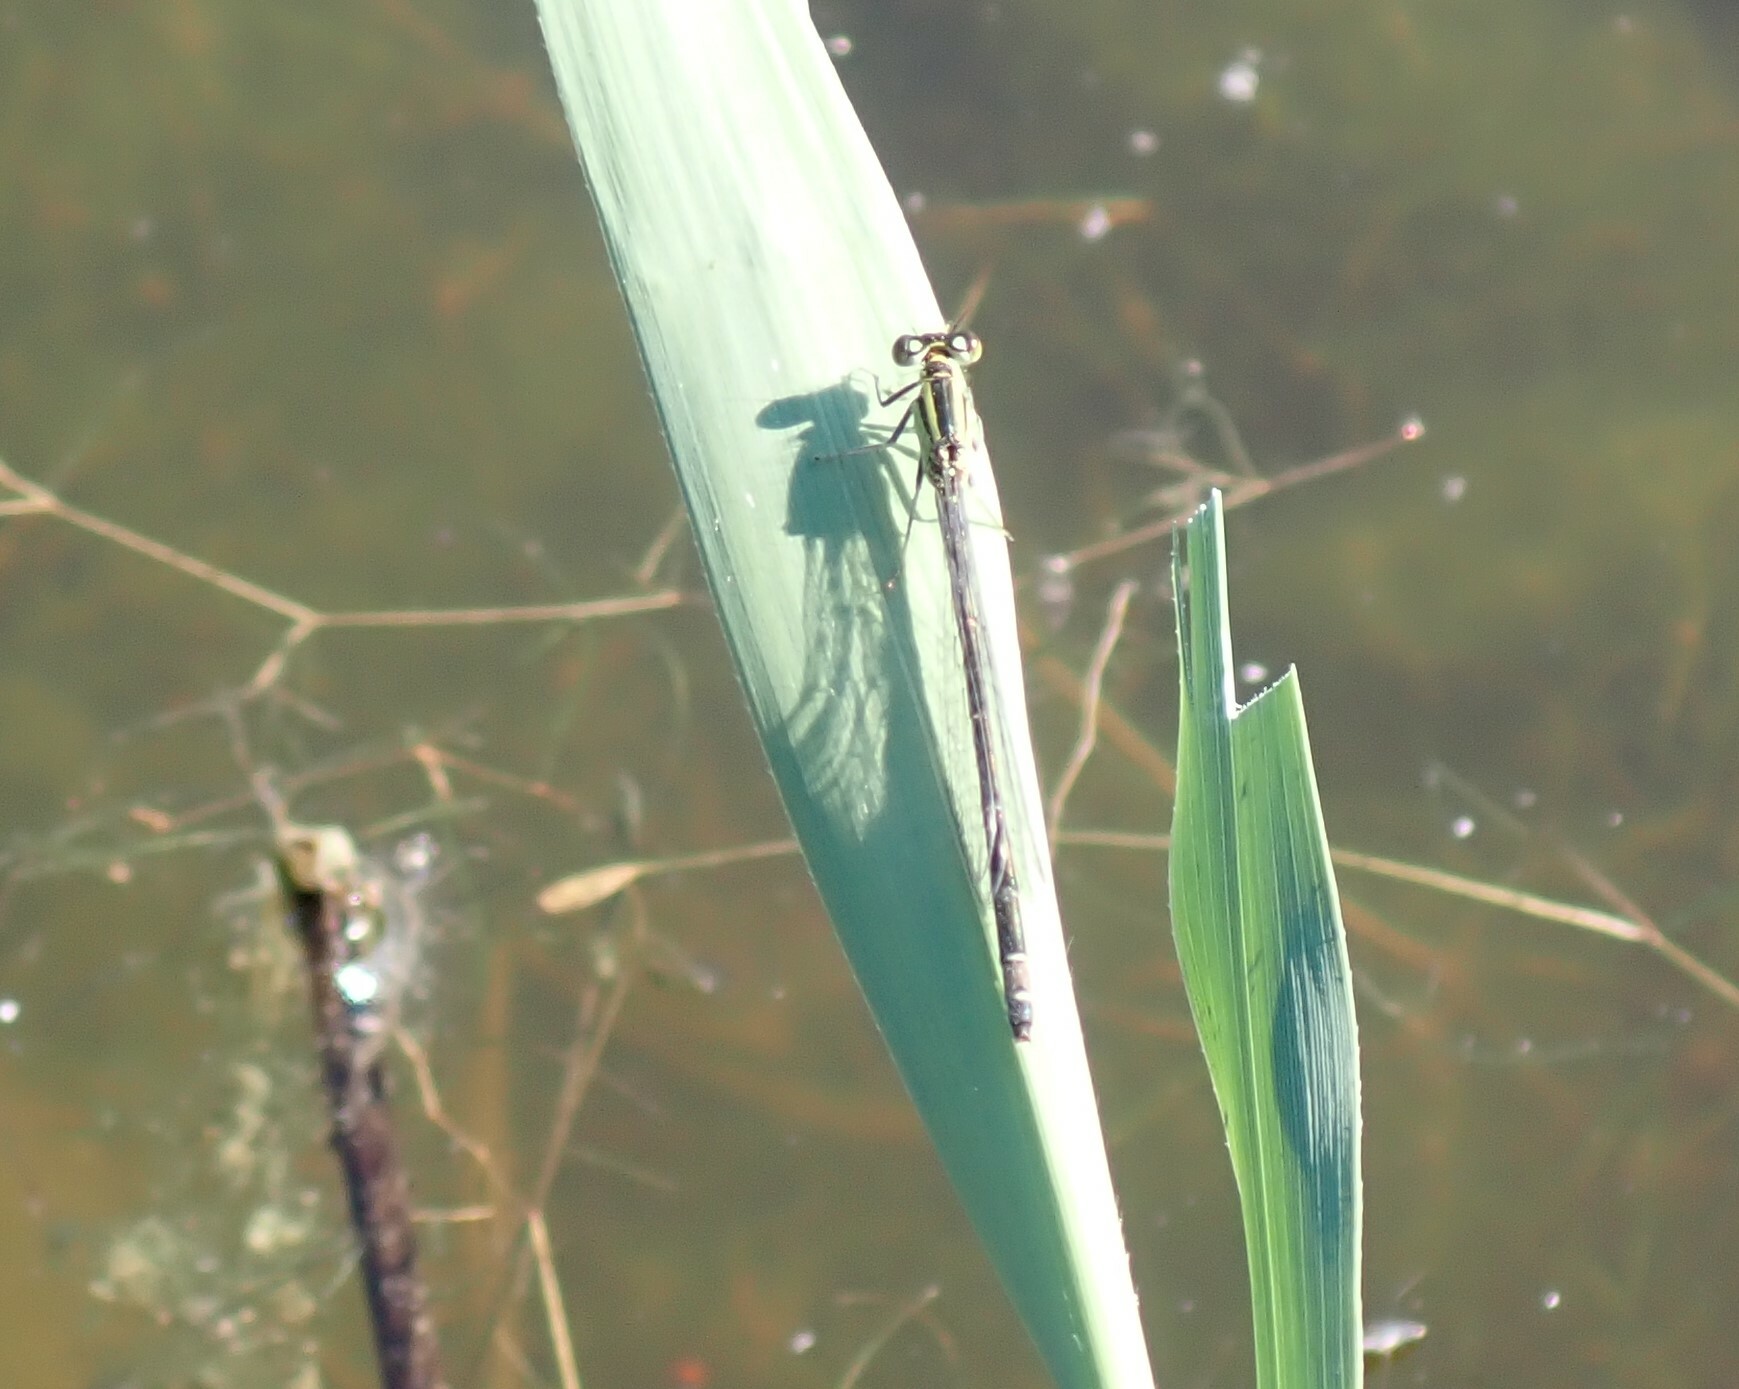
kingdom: Animalia
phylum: Arthropoda
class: Insecta
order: Odonata
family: Coenagrionidae
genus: Ischnura
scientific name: Ischnura elegans
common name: Blue-tailed damselfly
